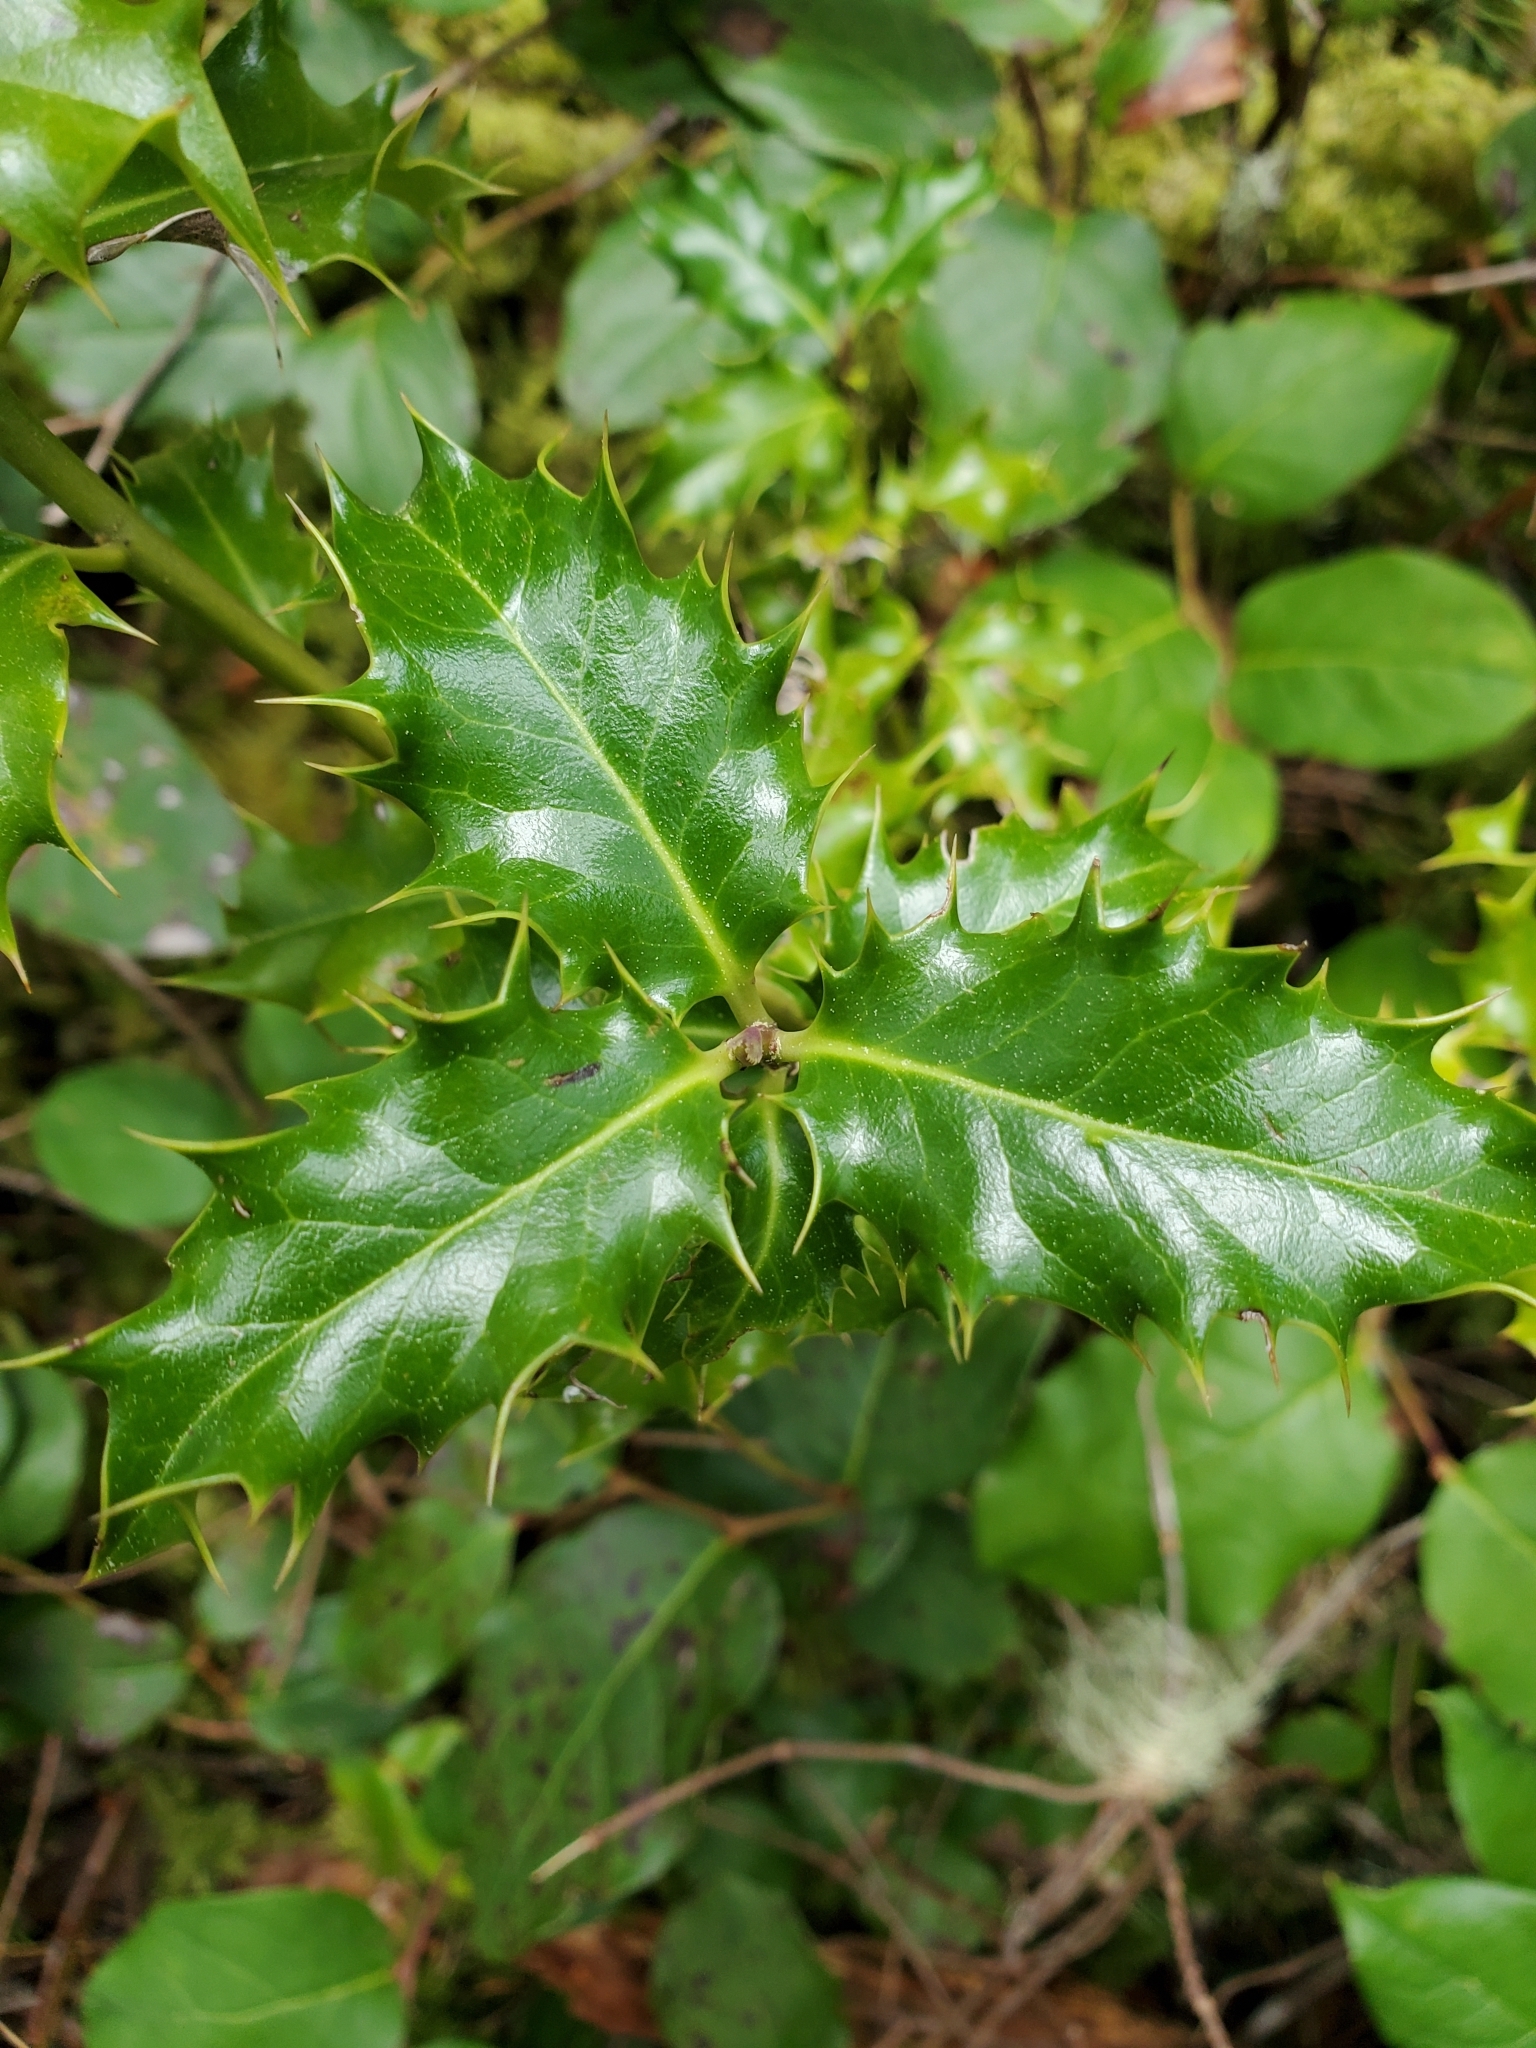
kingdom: Plantae
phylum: Tracheophyta
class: Magnoliopsida
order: Aquifoliales
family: Aquifoliaceae
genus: Ilex
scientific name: Ilex aquifolium
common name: English holly
